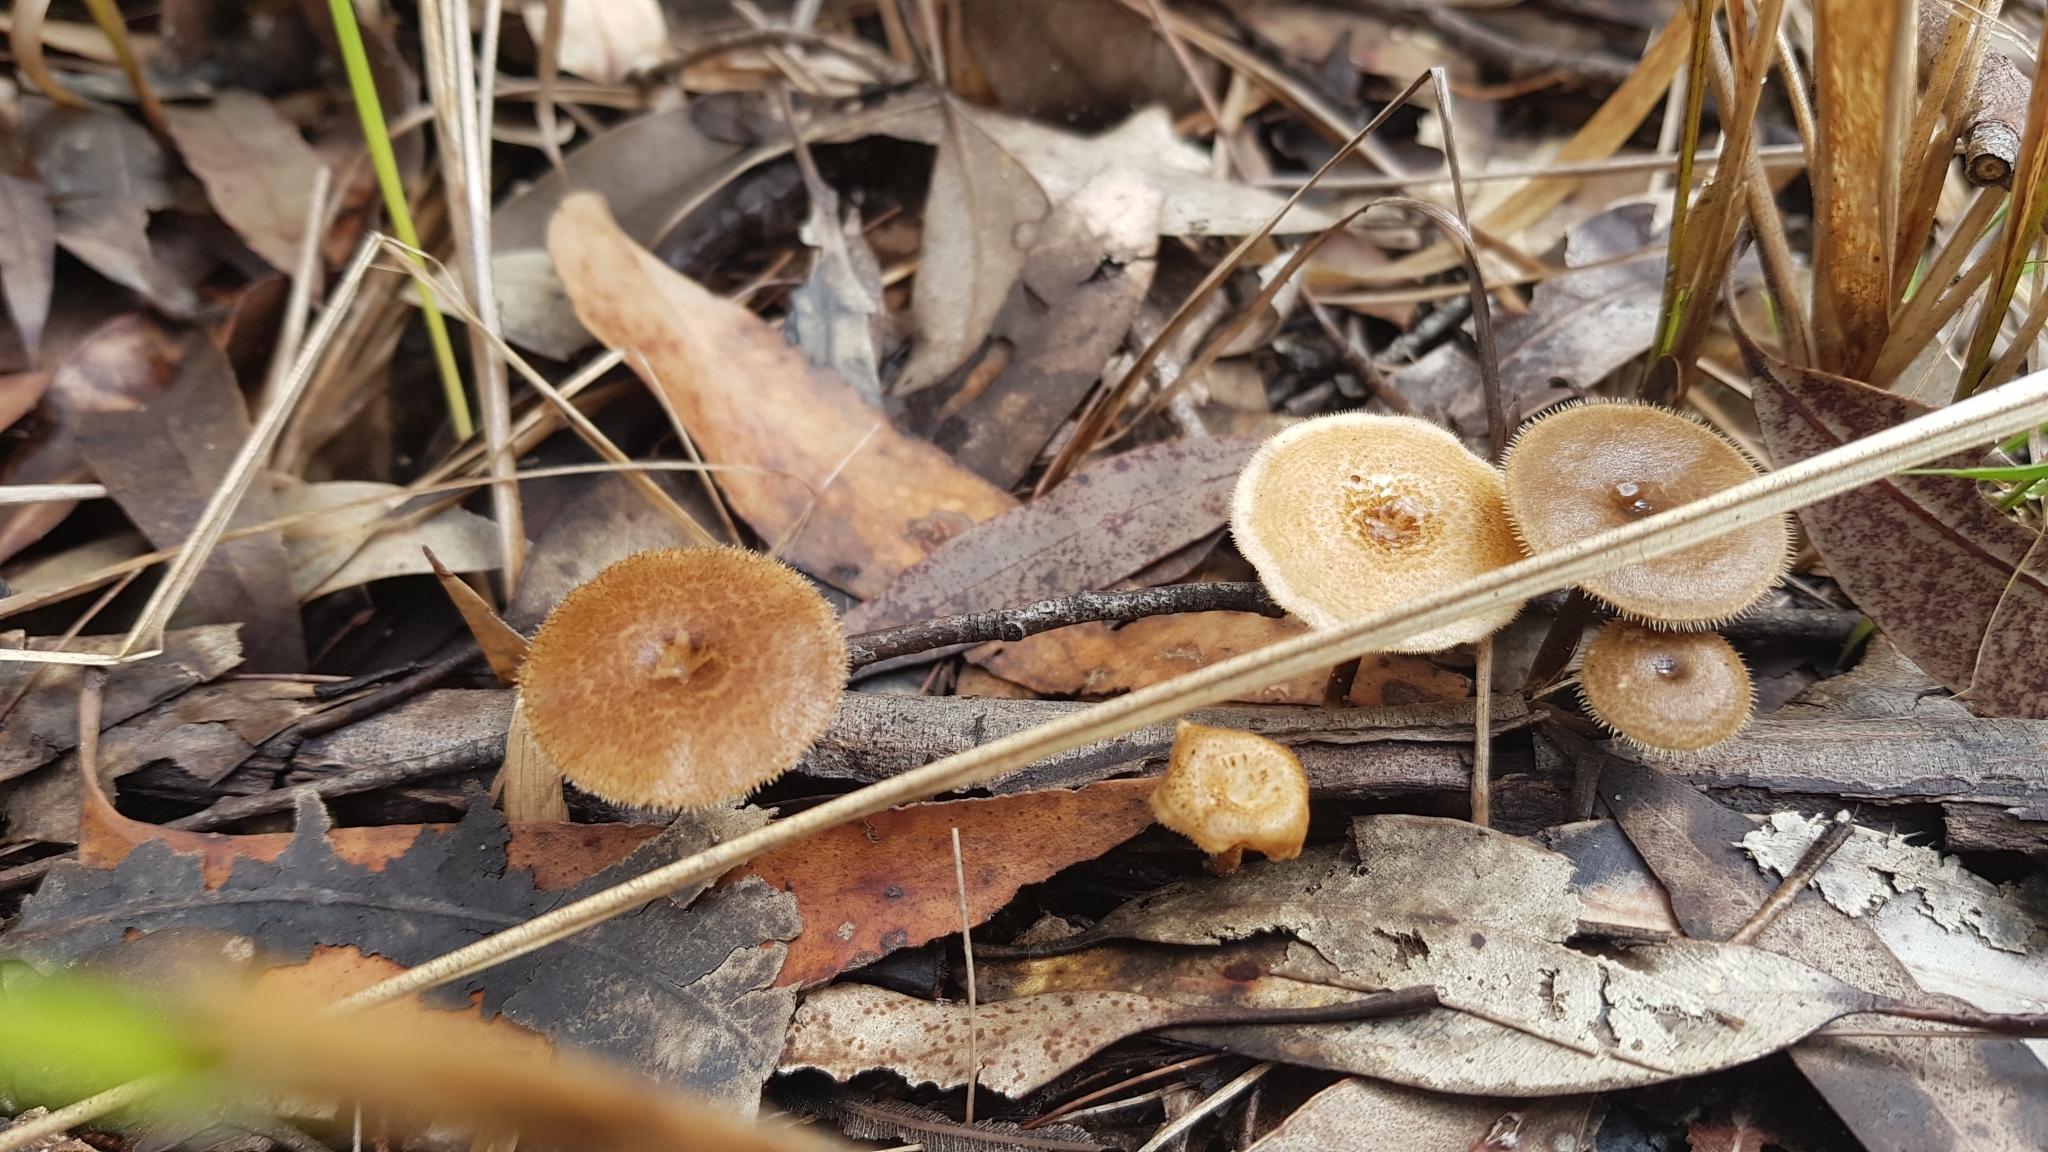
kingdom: Fungi
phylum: Basidiomycota
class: Agaricomycetes
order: Polyporales
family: Polyporaceae
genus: Lentinus
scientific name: Lentinus arcularius
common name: Spring polypore
